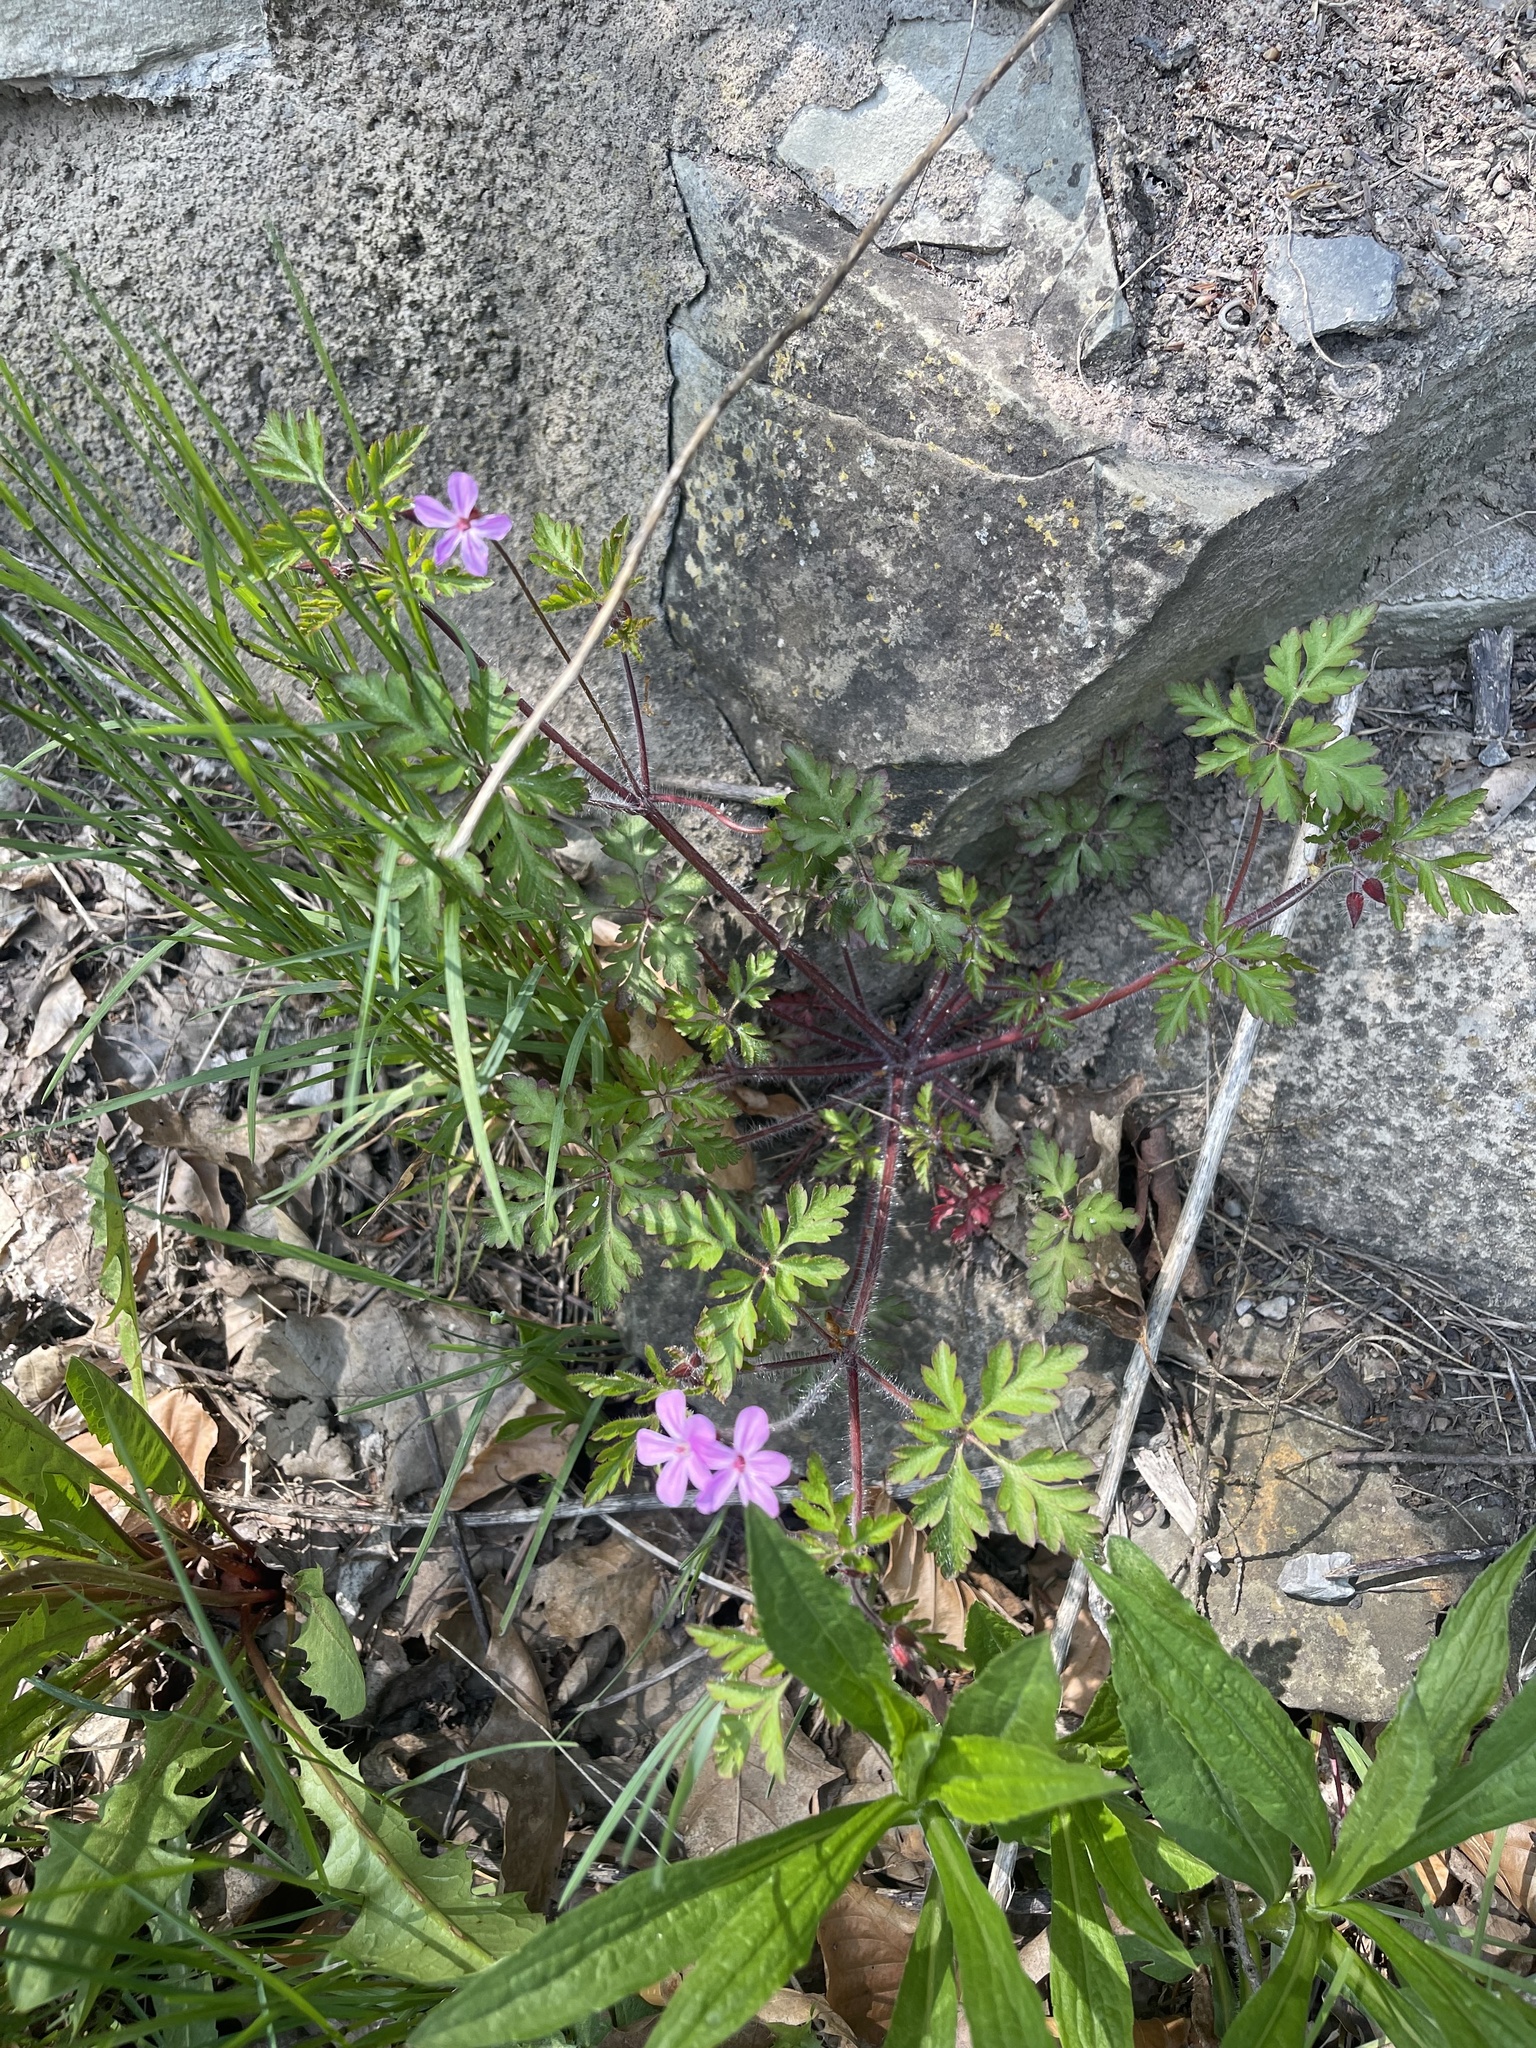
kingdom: Plantae
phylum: Tracheophyta
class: Magnoliopsida
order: Geraniales
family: Geraniaceae
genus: Geranium
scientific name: Geranium robertianum
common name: Herb-robert
